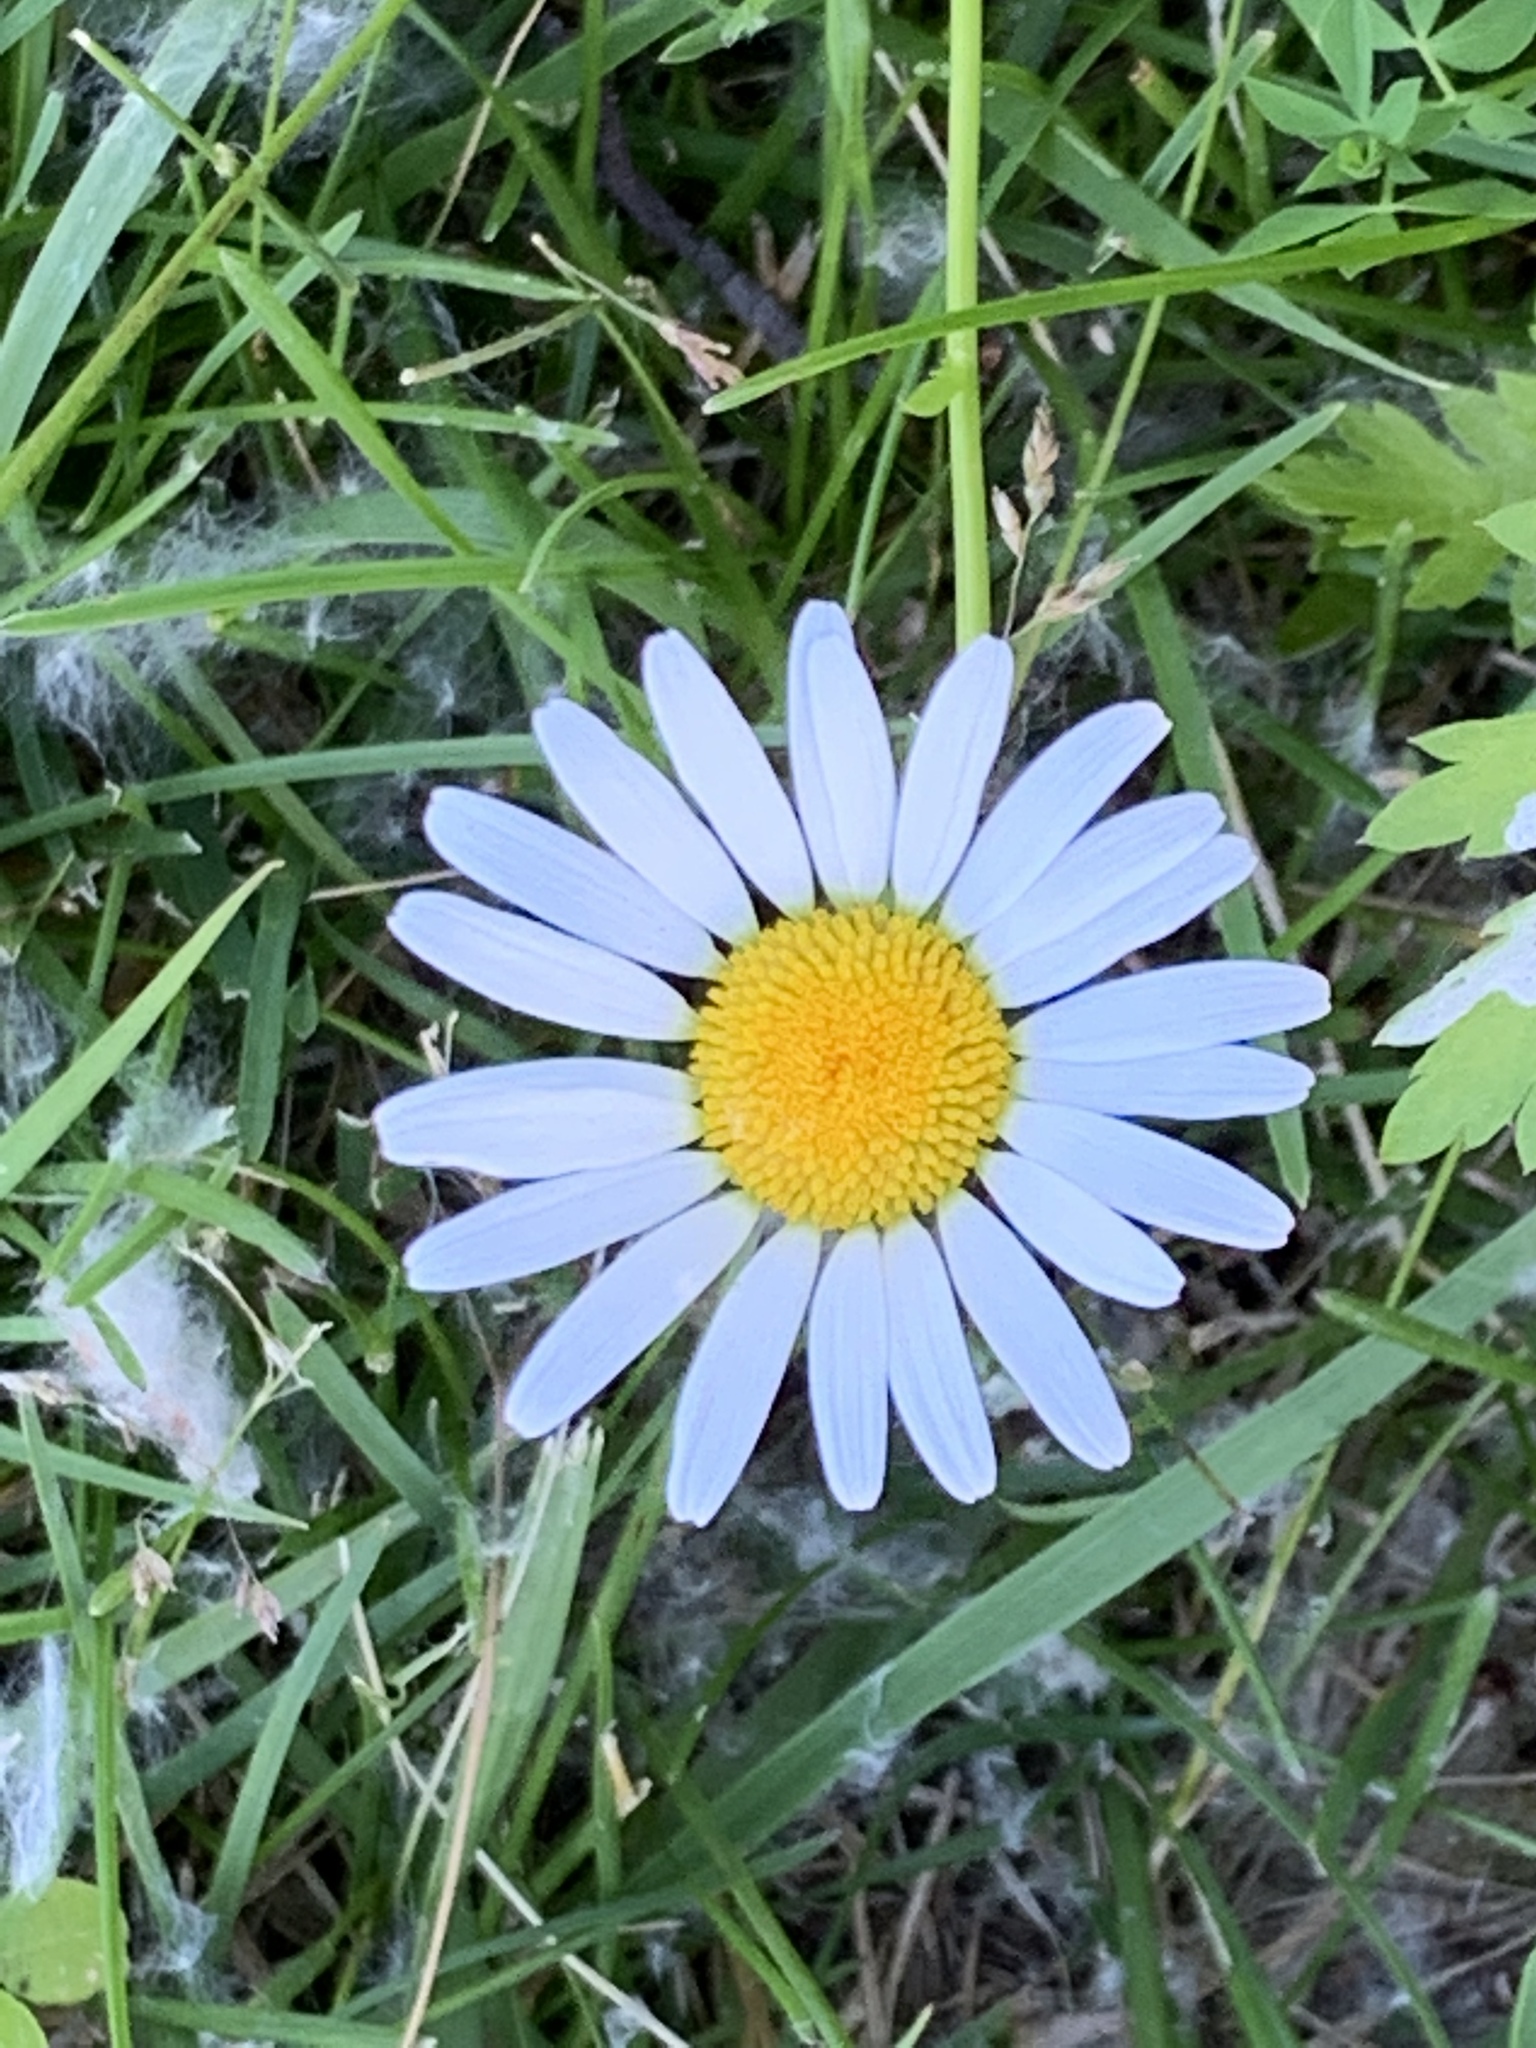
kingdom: Plantae
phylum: Tracheophyta
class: Magnoliopsida
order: Asterales
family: Asteraceae
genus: Leucanthemum
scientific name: Leucanthemum vulgare
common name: Oxeye daisy
